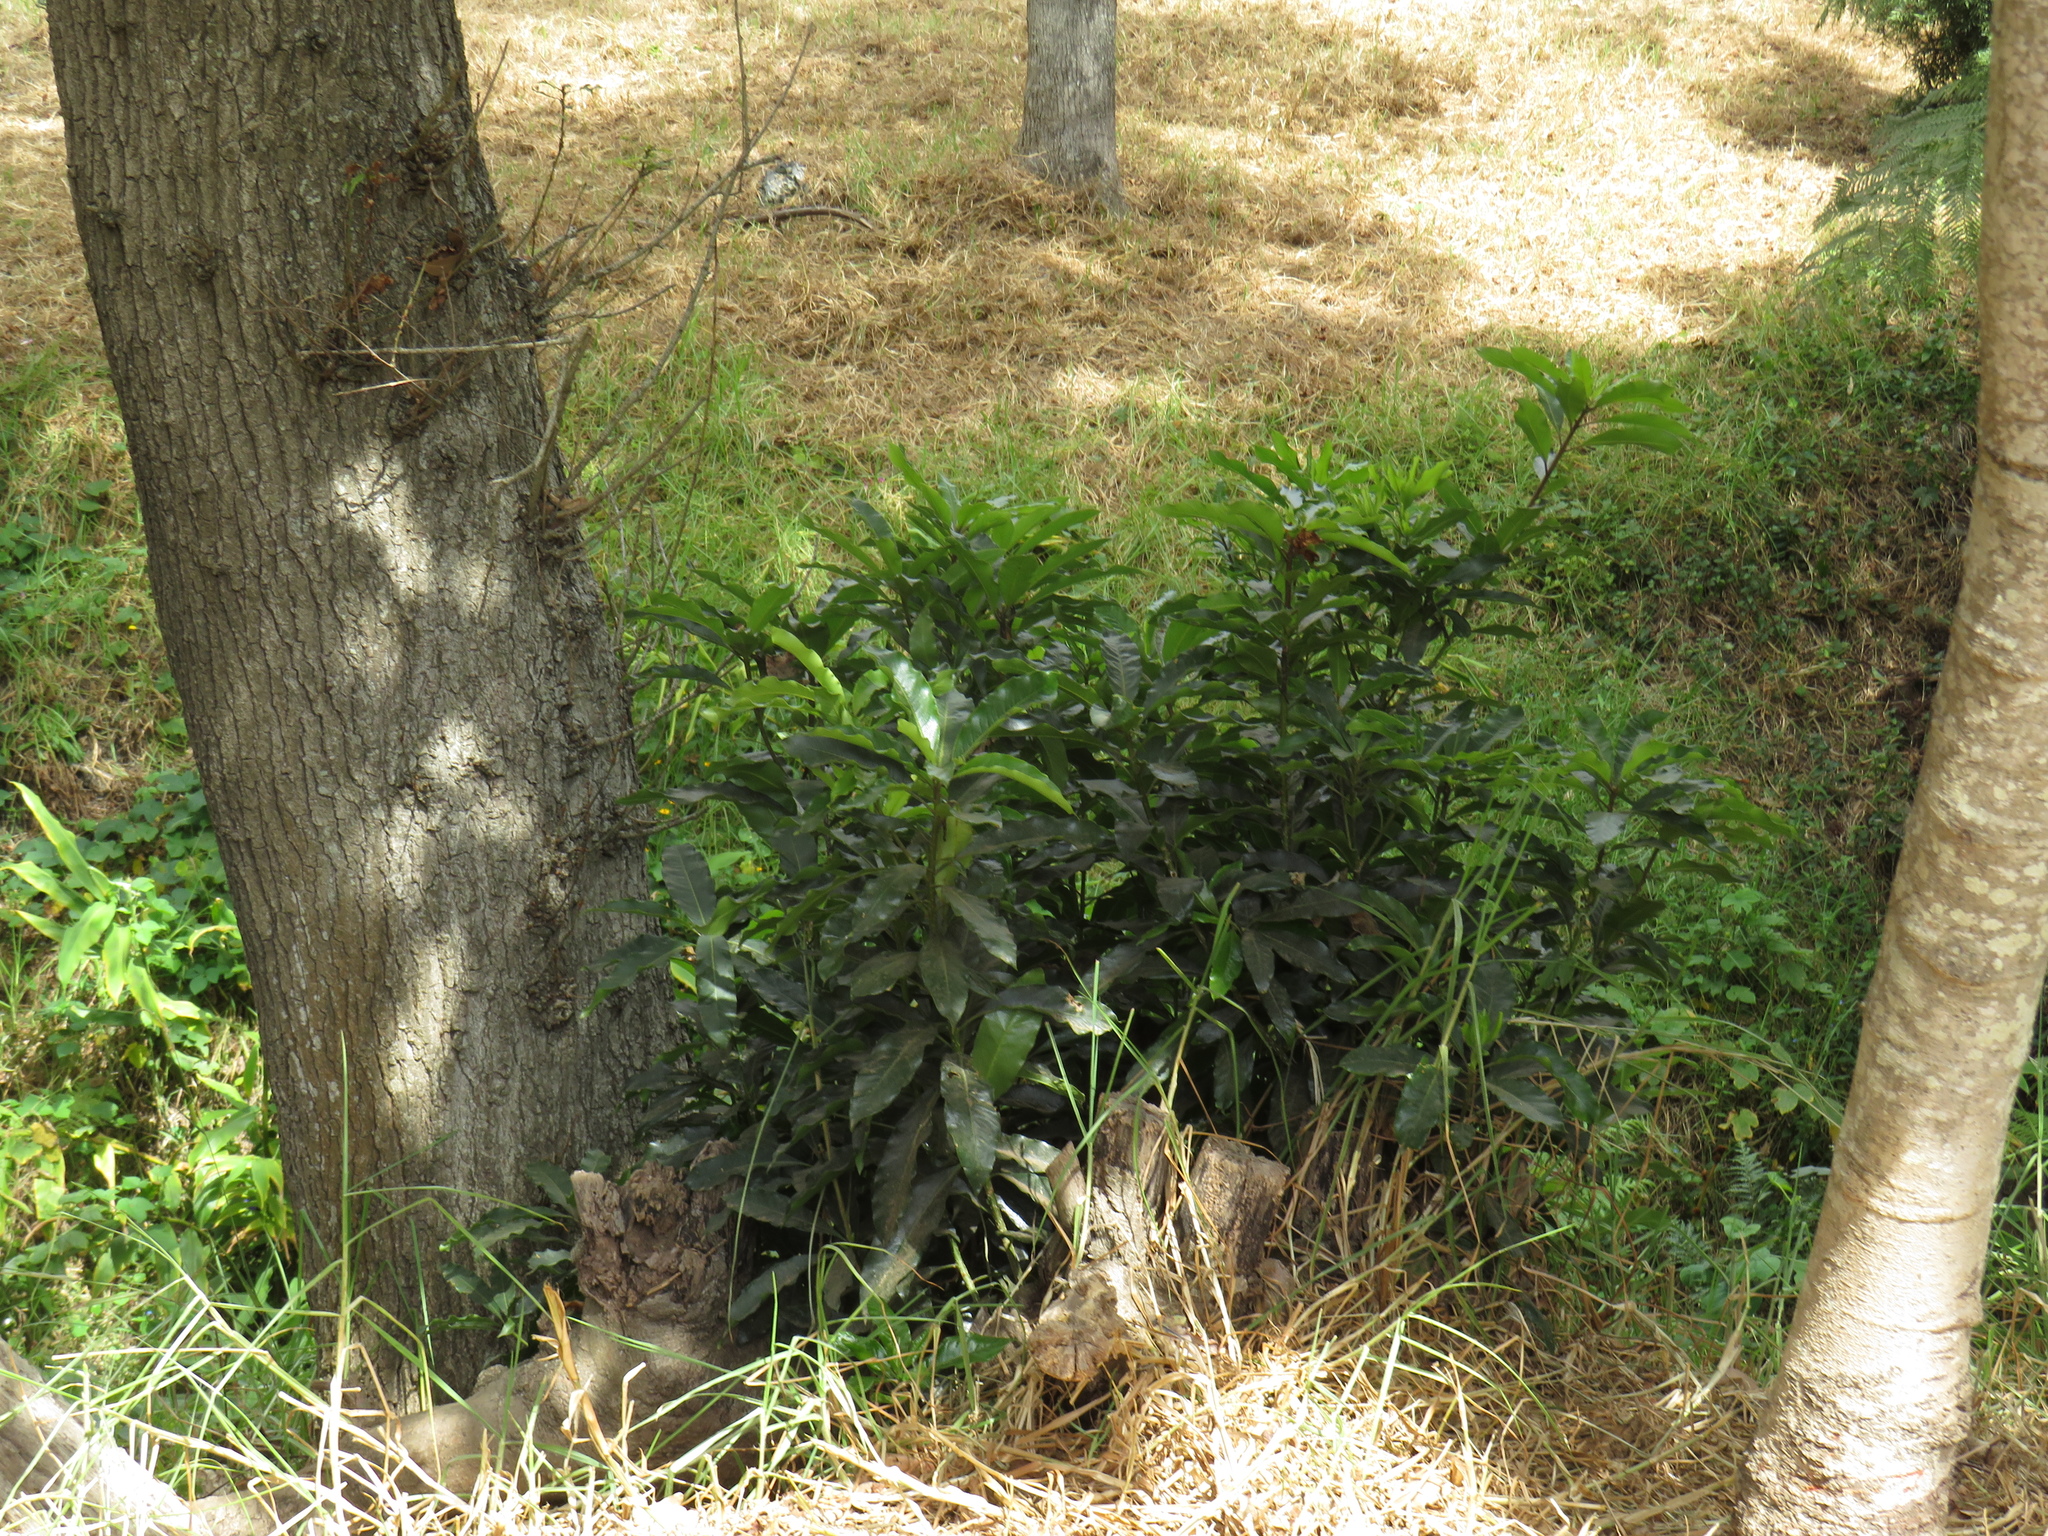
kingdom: Plantae
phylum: Tracheophyta
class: Magnoliopsida
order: Apiales
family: Pittosporaceae
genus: Pittosporum
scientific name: Pittosporum undulatum
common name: Australian cheesewood
